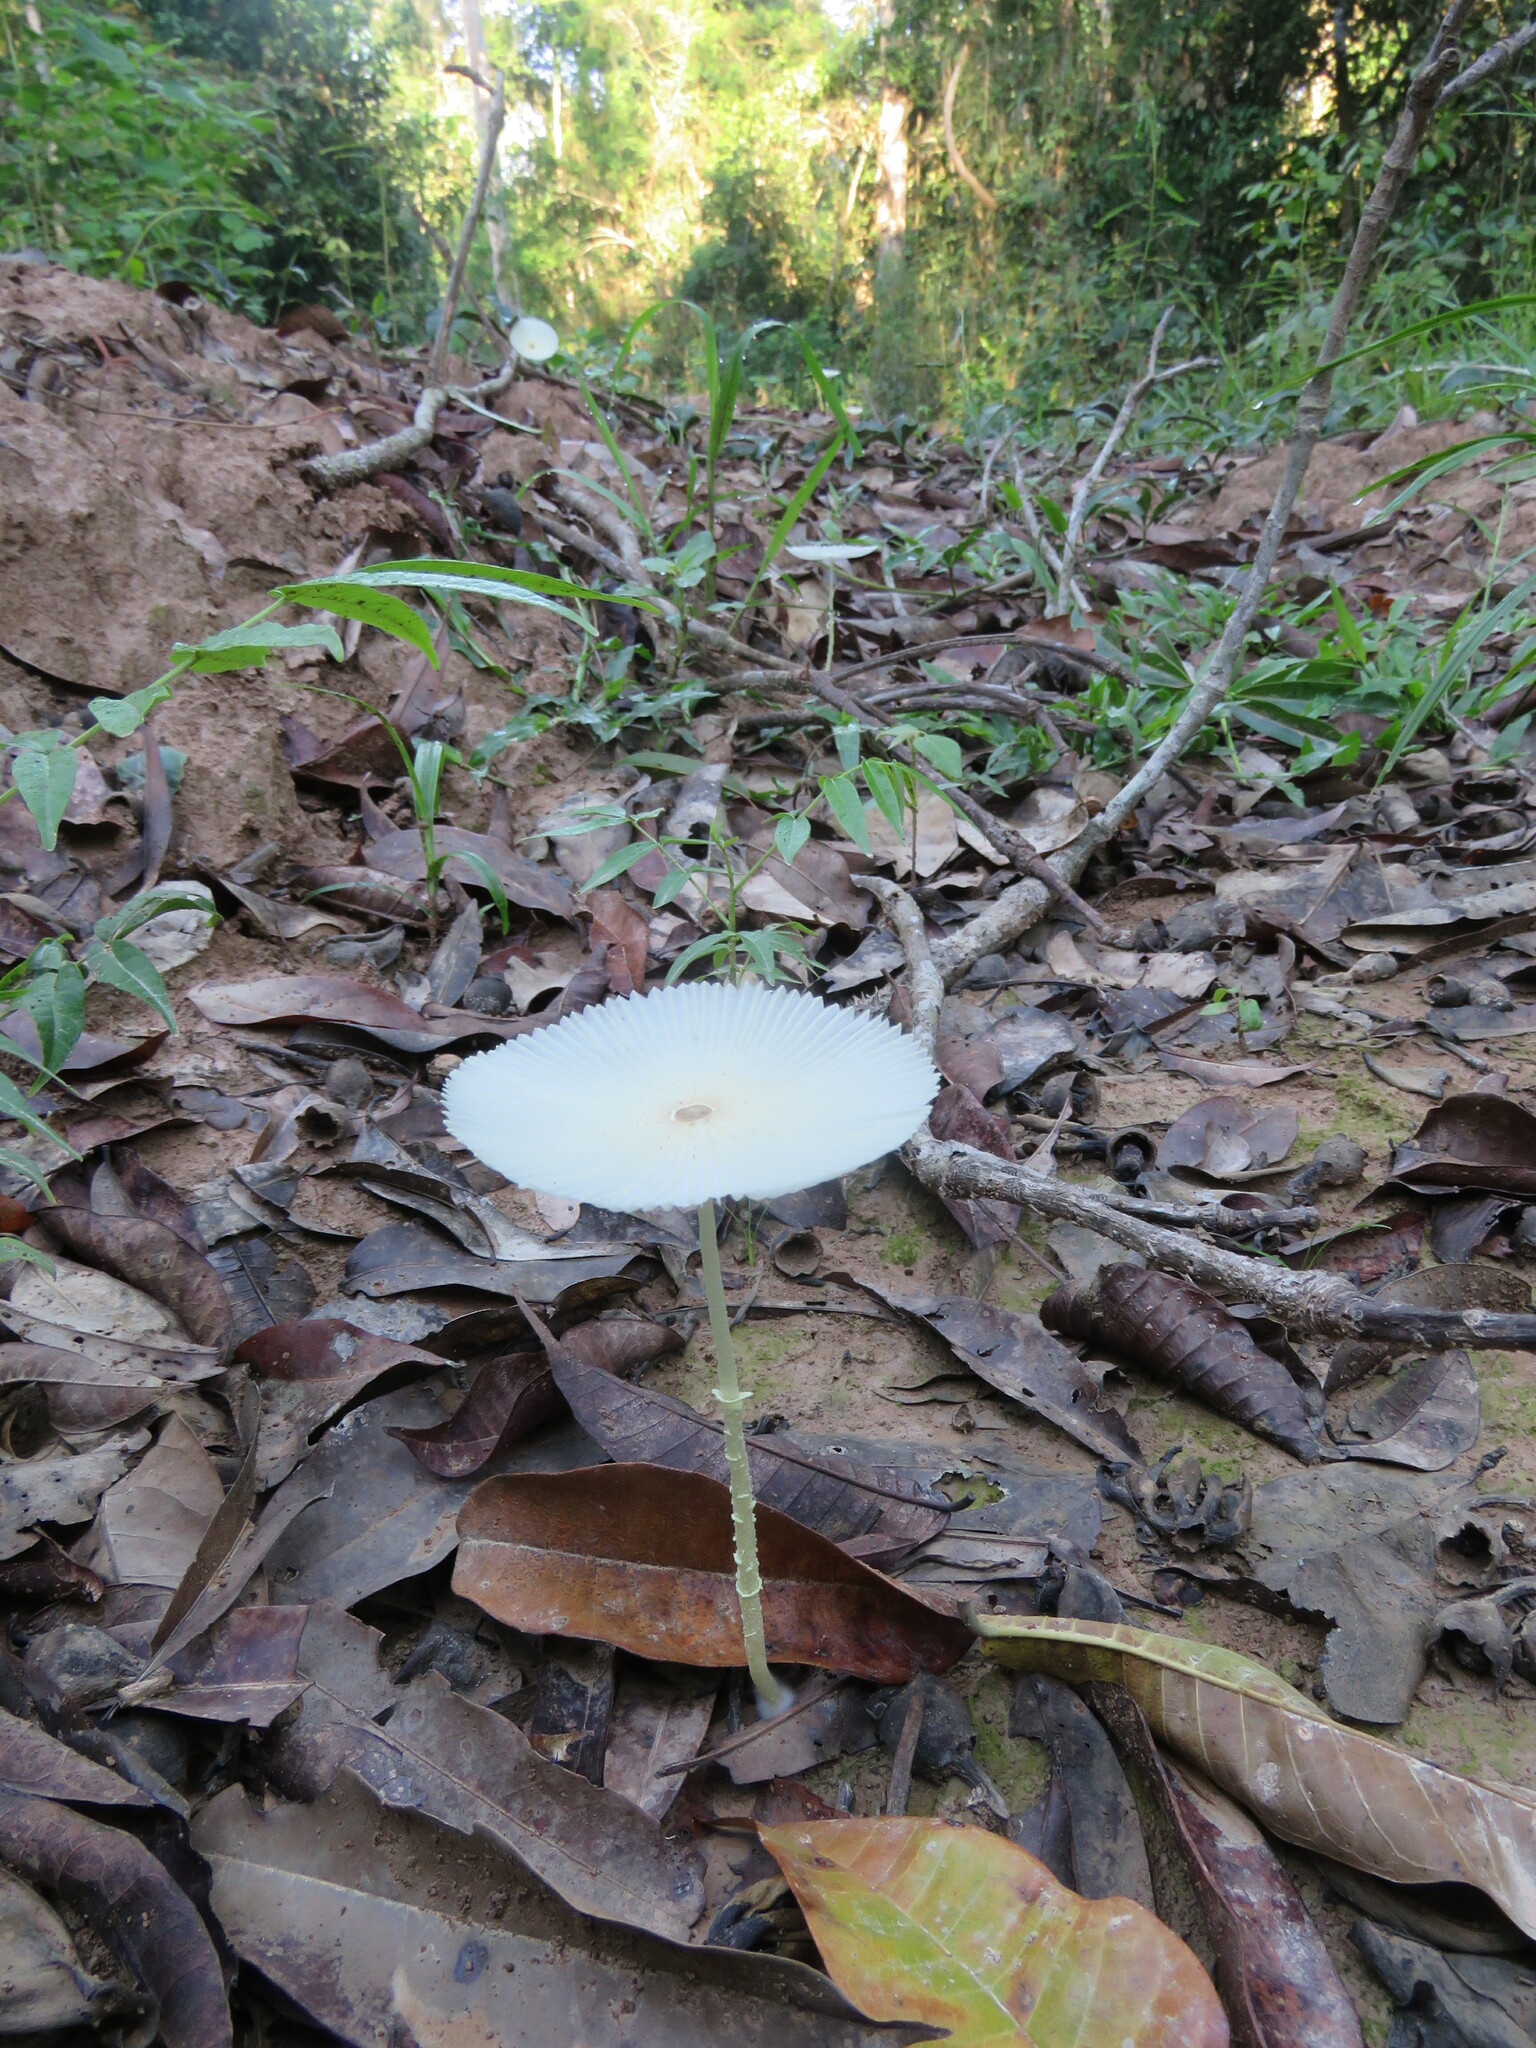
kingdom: Fungi
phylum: Basidiomycota
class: Agaricomycetes
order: Agaricales
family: Agaricaceae
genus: Leucocoprinus
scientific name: Leucocoprinus fragilissimus
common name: Fragile dapperling
